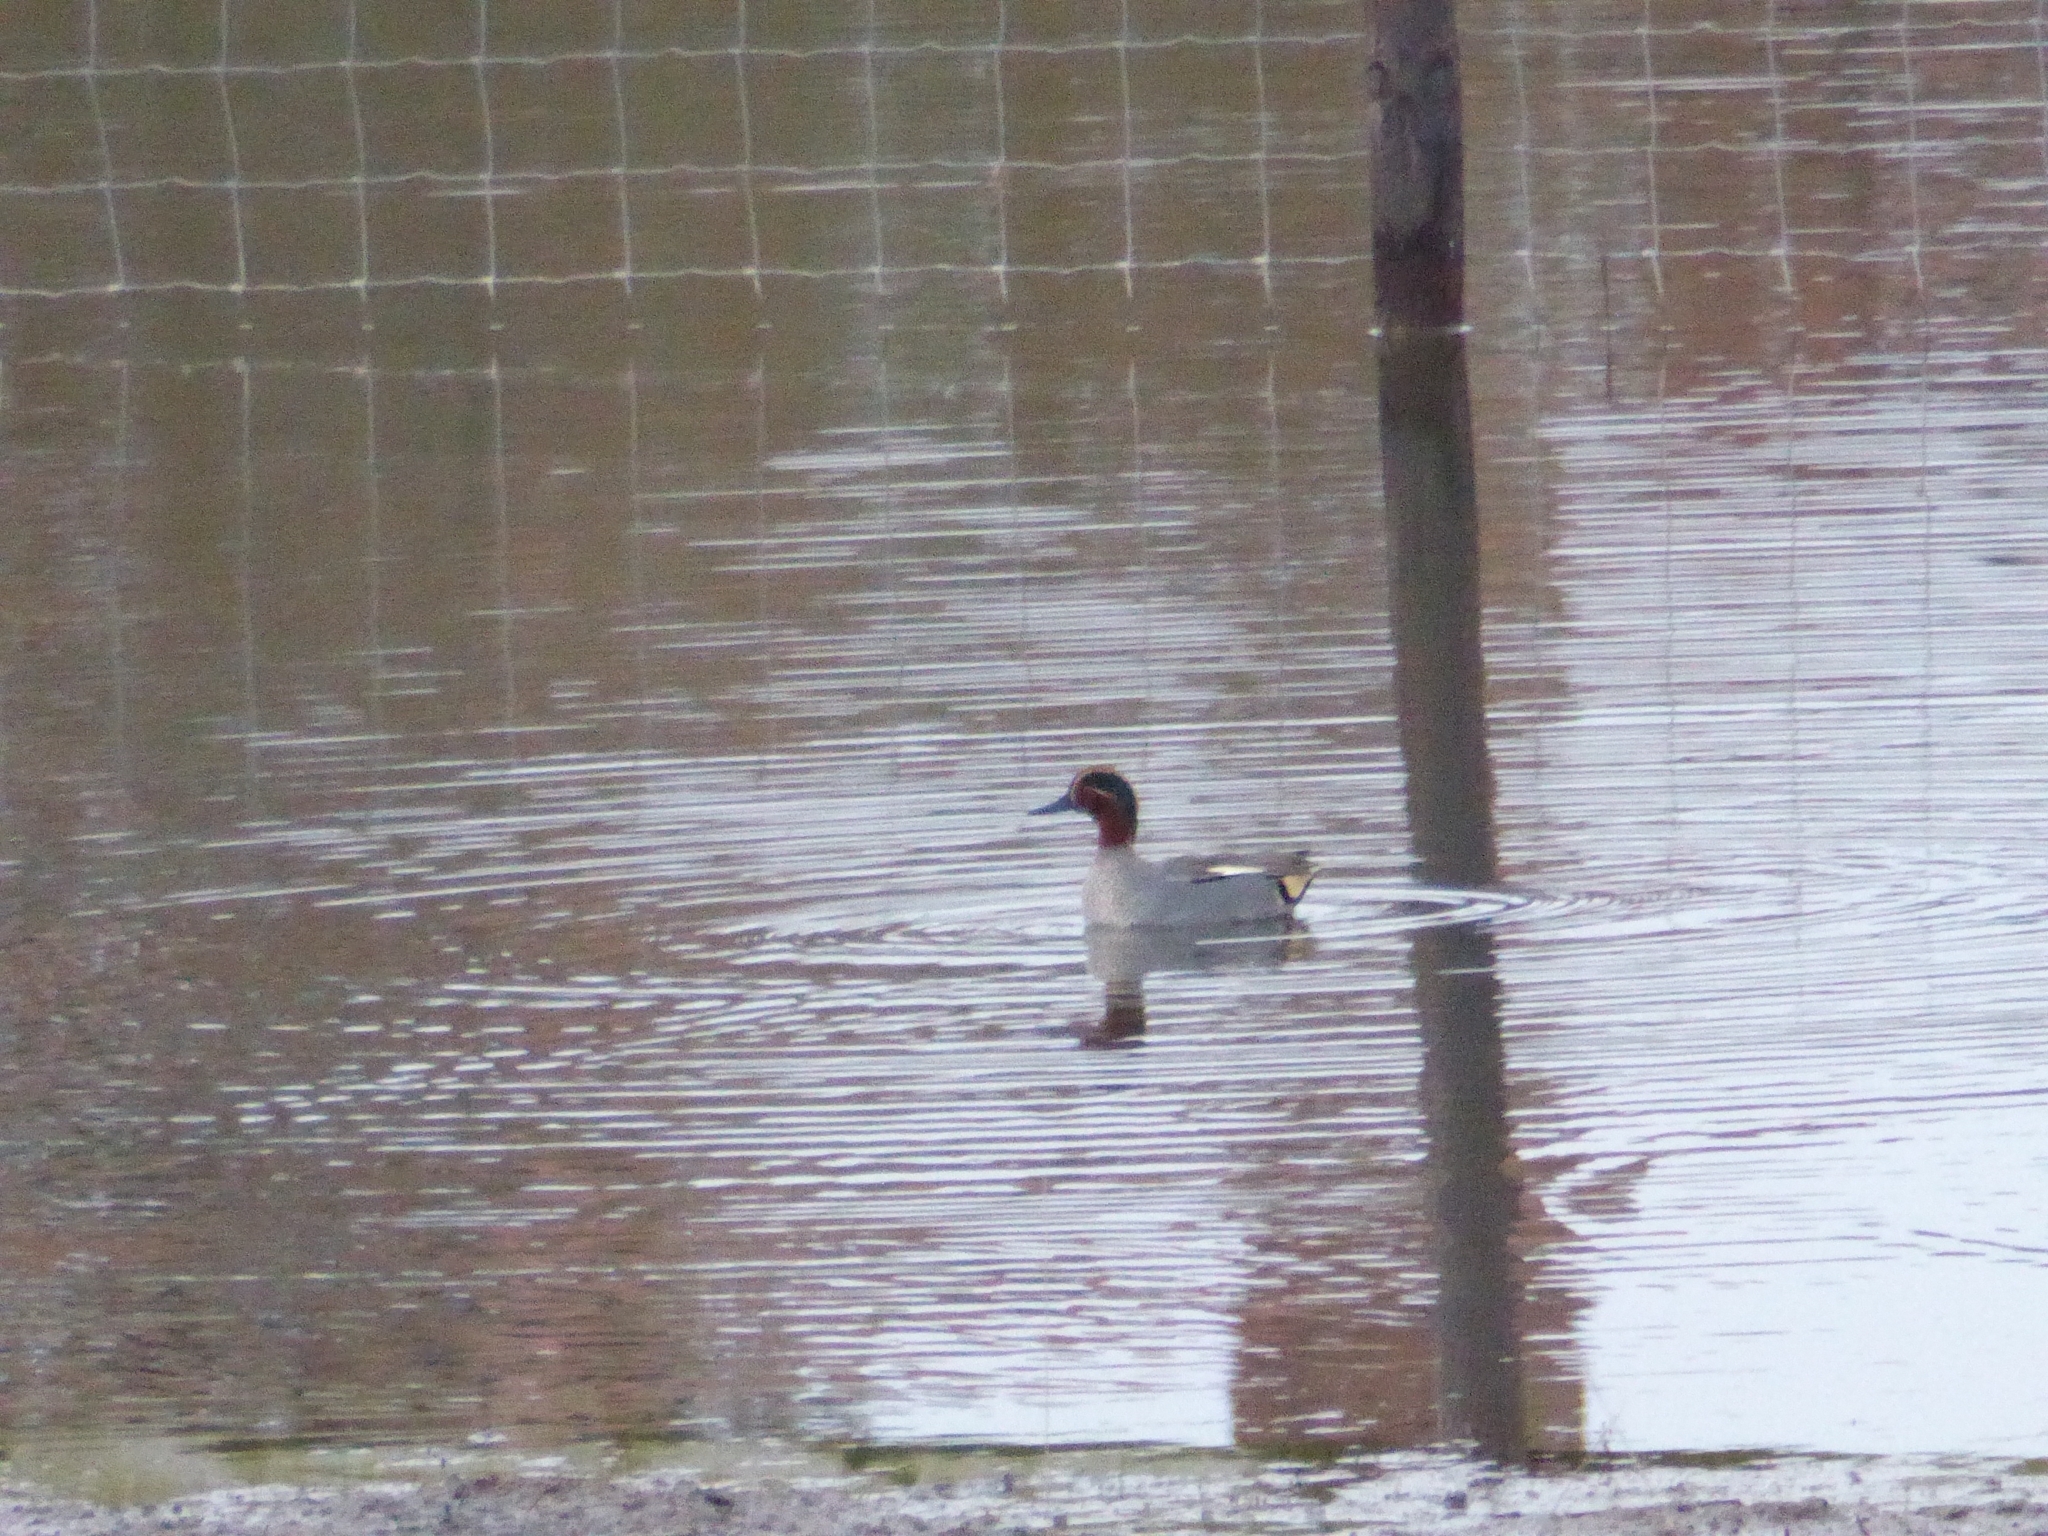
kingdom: Animalia
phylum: Chordata
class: Aves
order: Anseriformes
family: Anatidae
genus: Anas
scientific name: Anas crecca
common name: Eurasian teal
